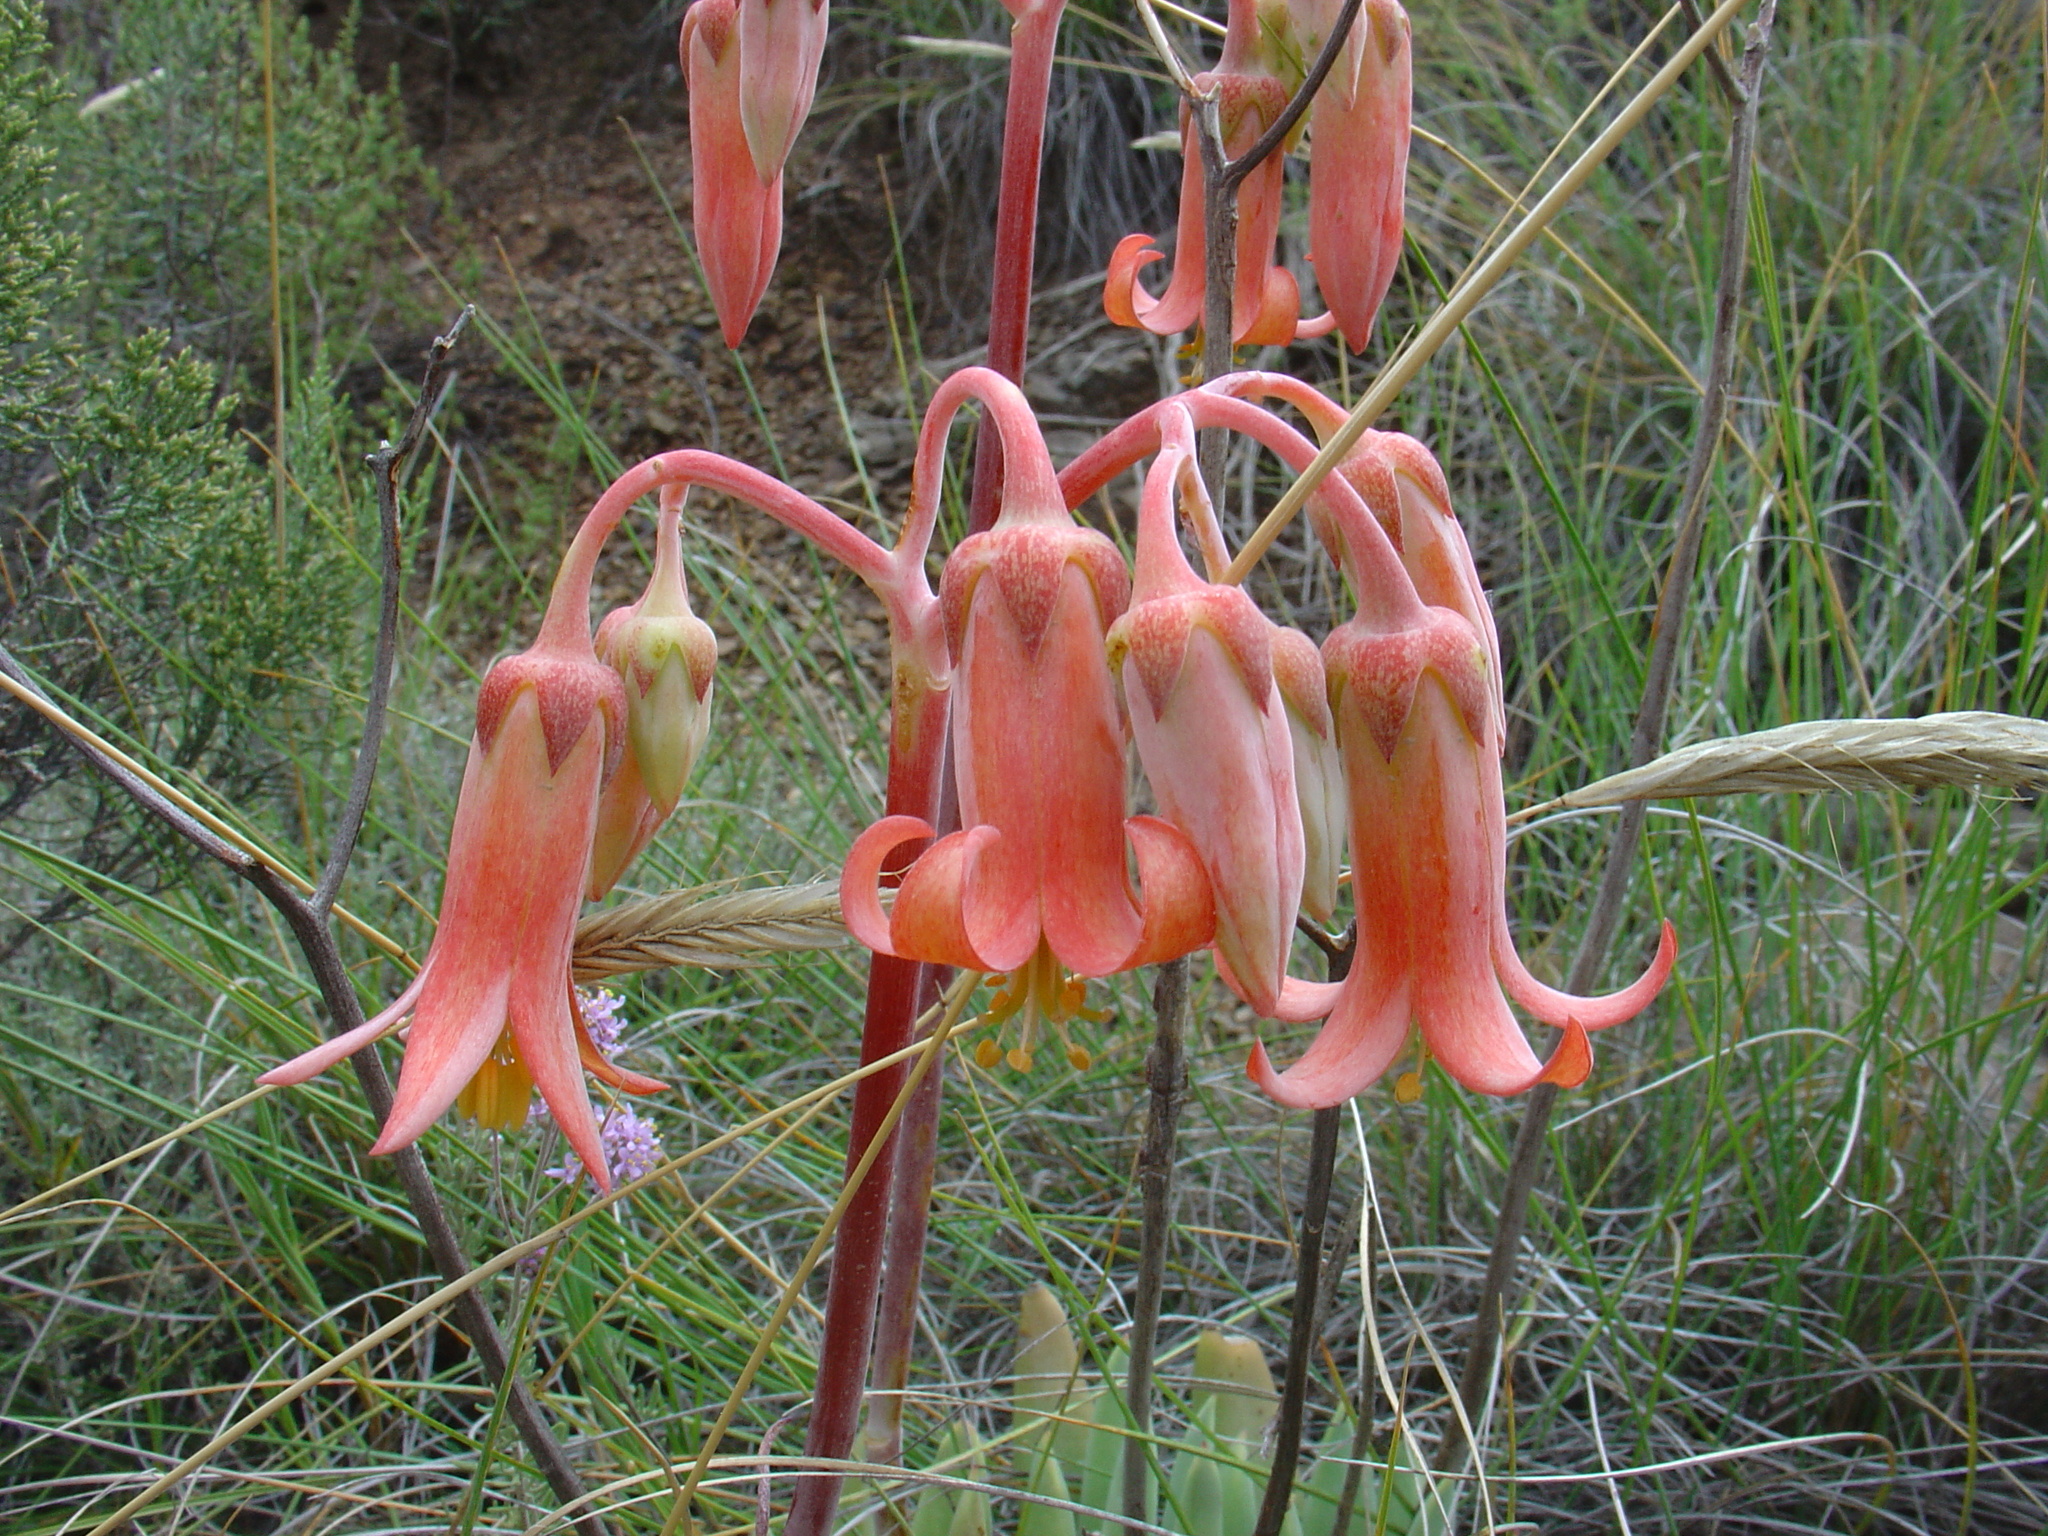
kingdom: Plantae
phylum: Tracheophyta
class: Magnoliopsida
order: Saxifragales
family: Crassulaceae
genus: Cotyledon
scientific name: Cotyledon orbiculata
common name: Pig's ear
